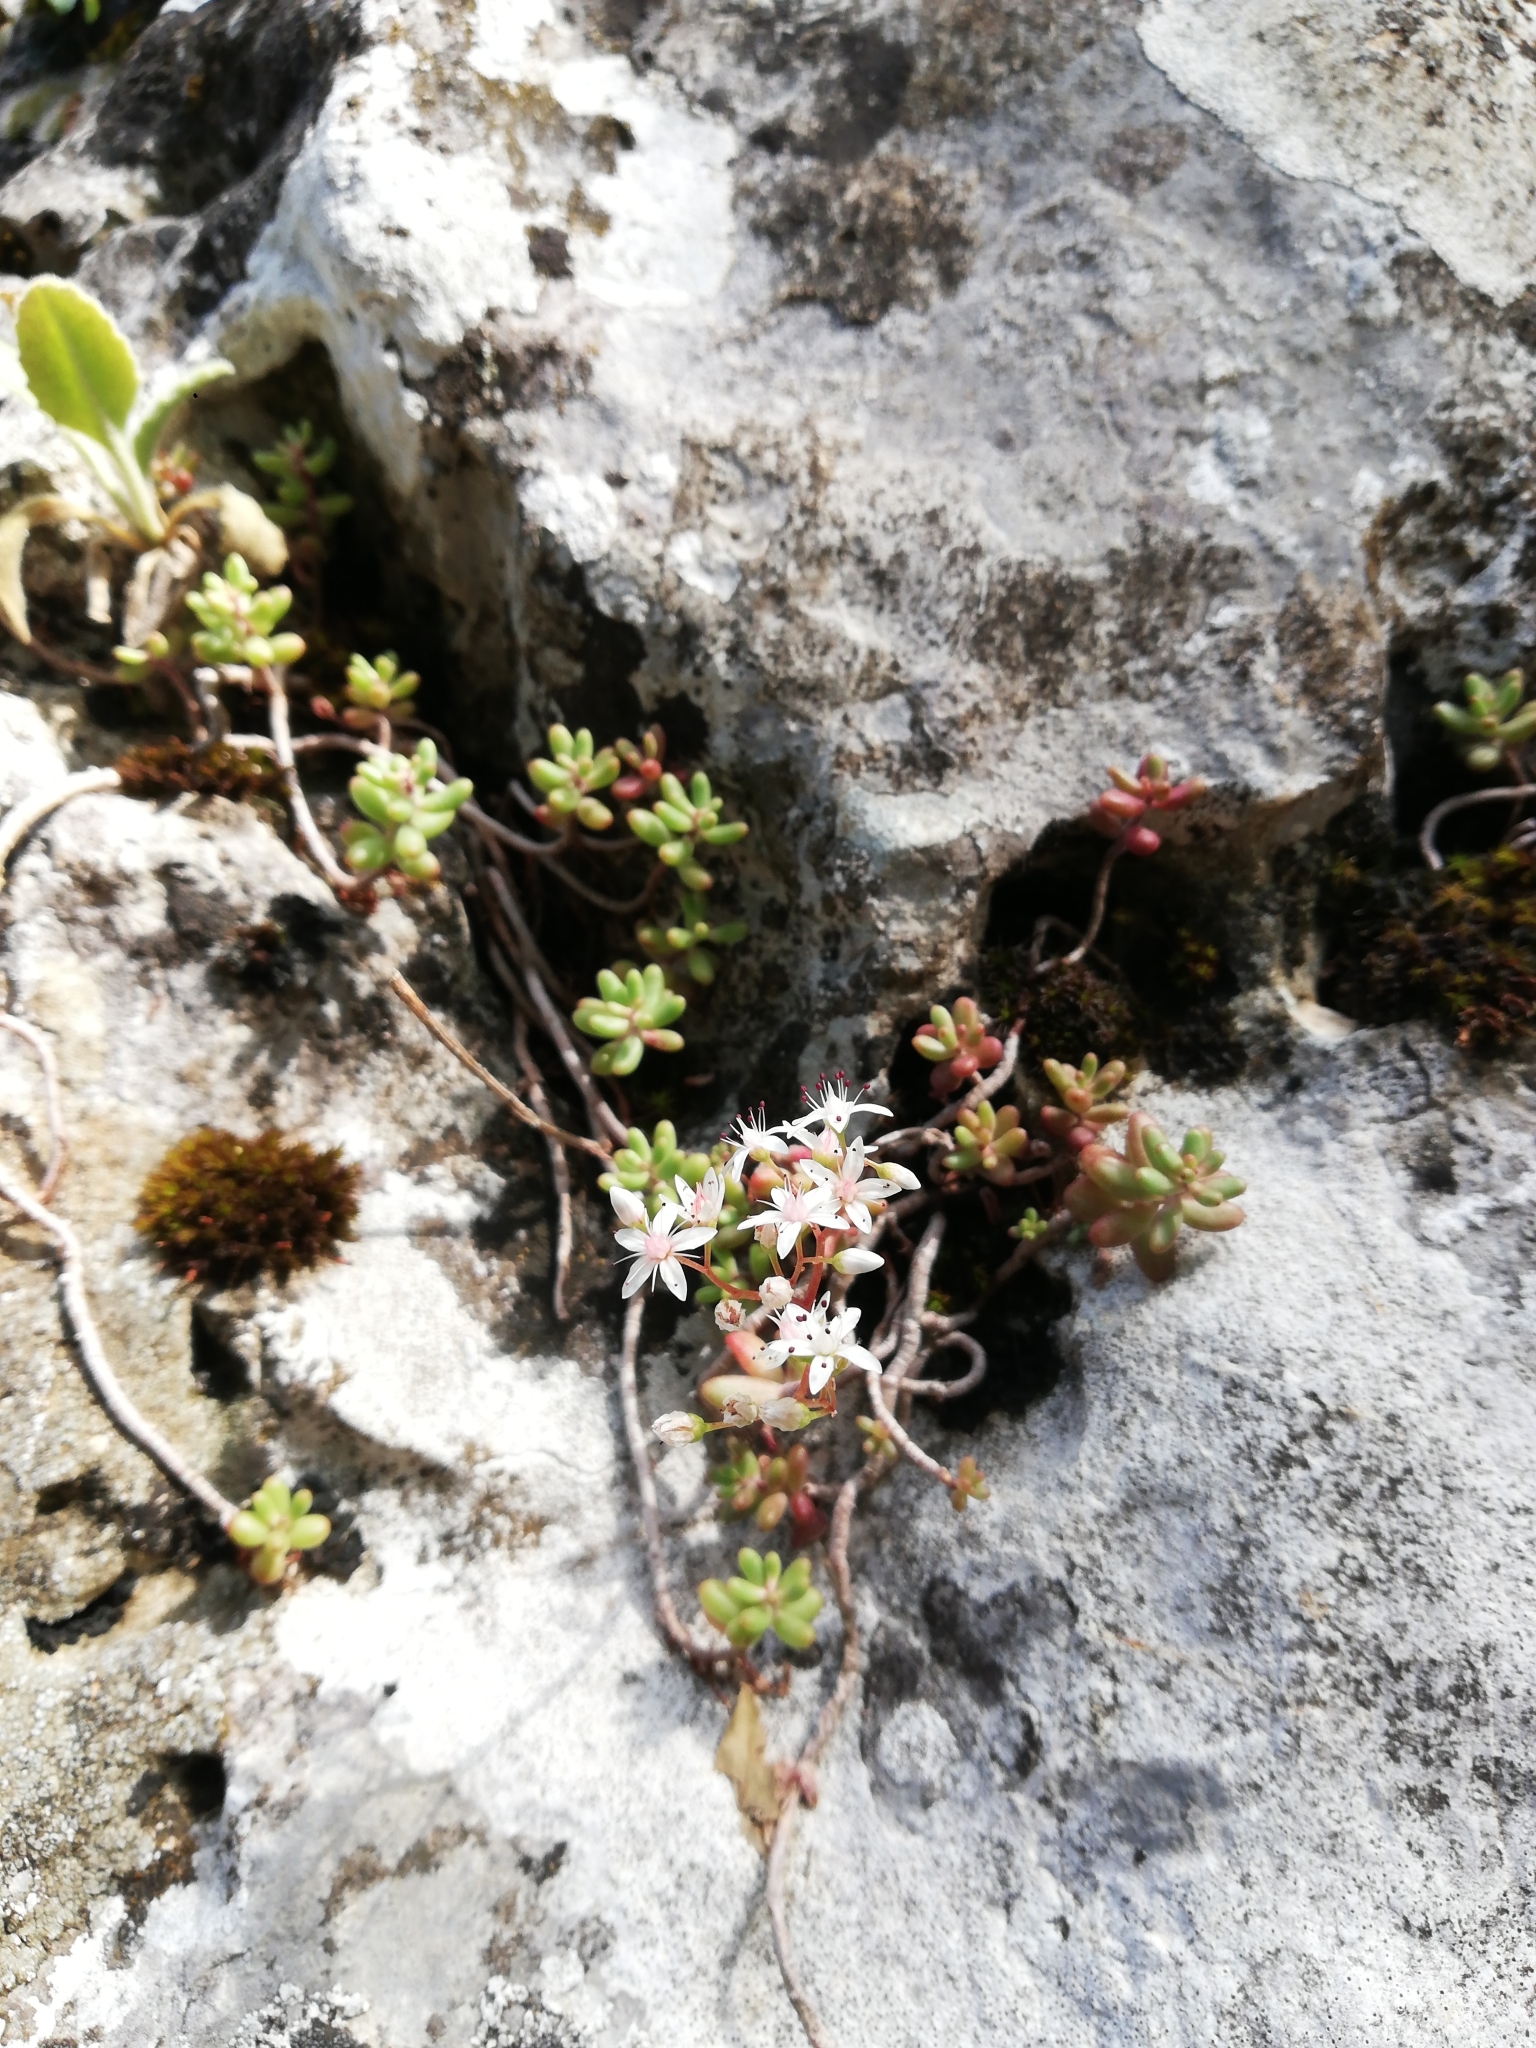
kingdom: Plantae
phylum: Tracheophyta
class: Magnoliopsida
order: Saxifragales
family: Crassulaceae
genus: Sedum
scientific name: Sedum album
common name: White stonecrop
